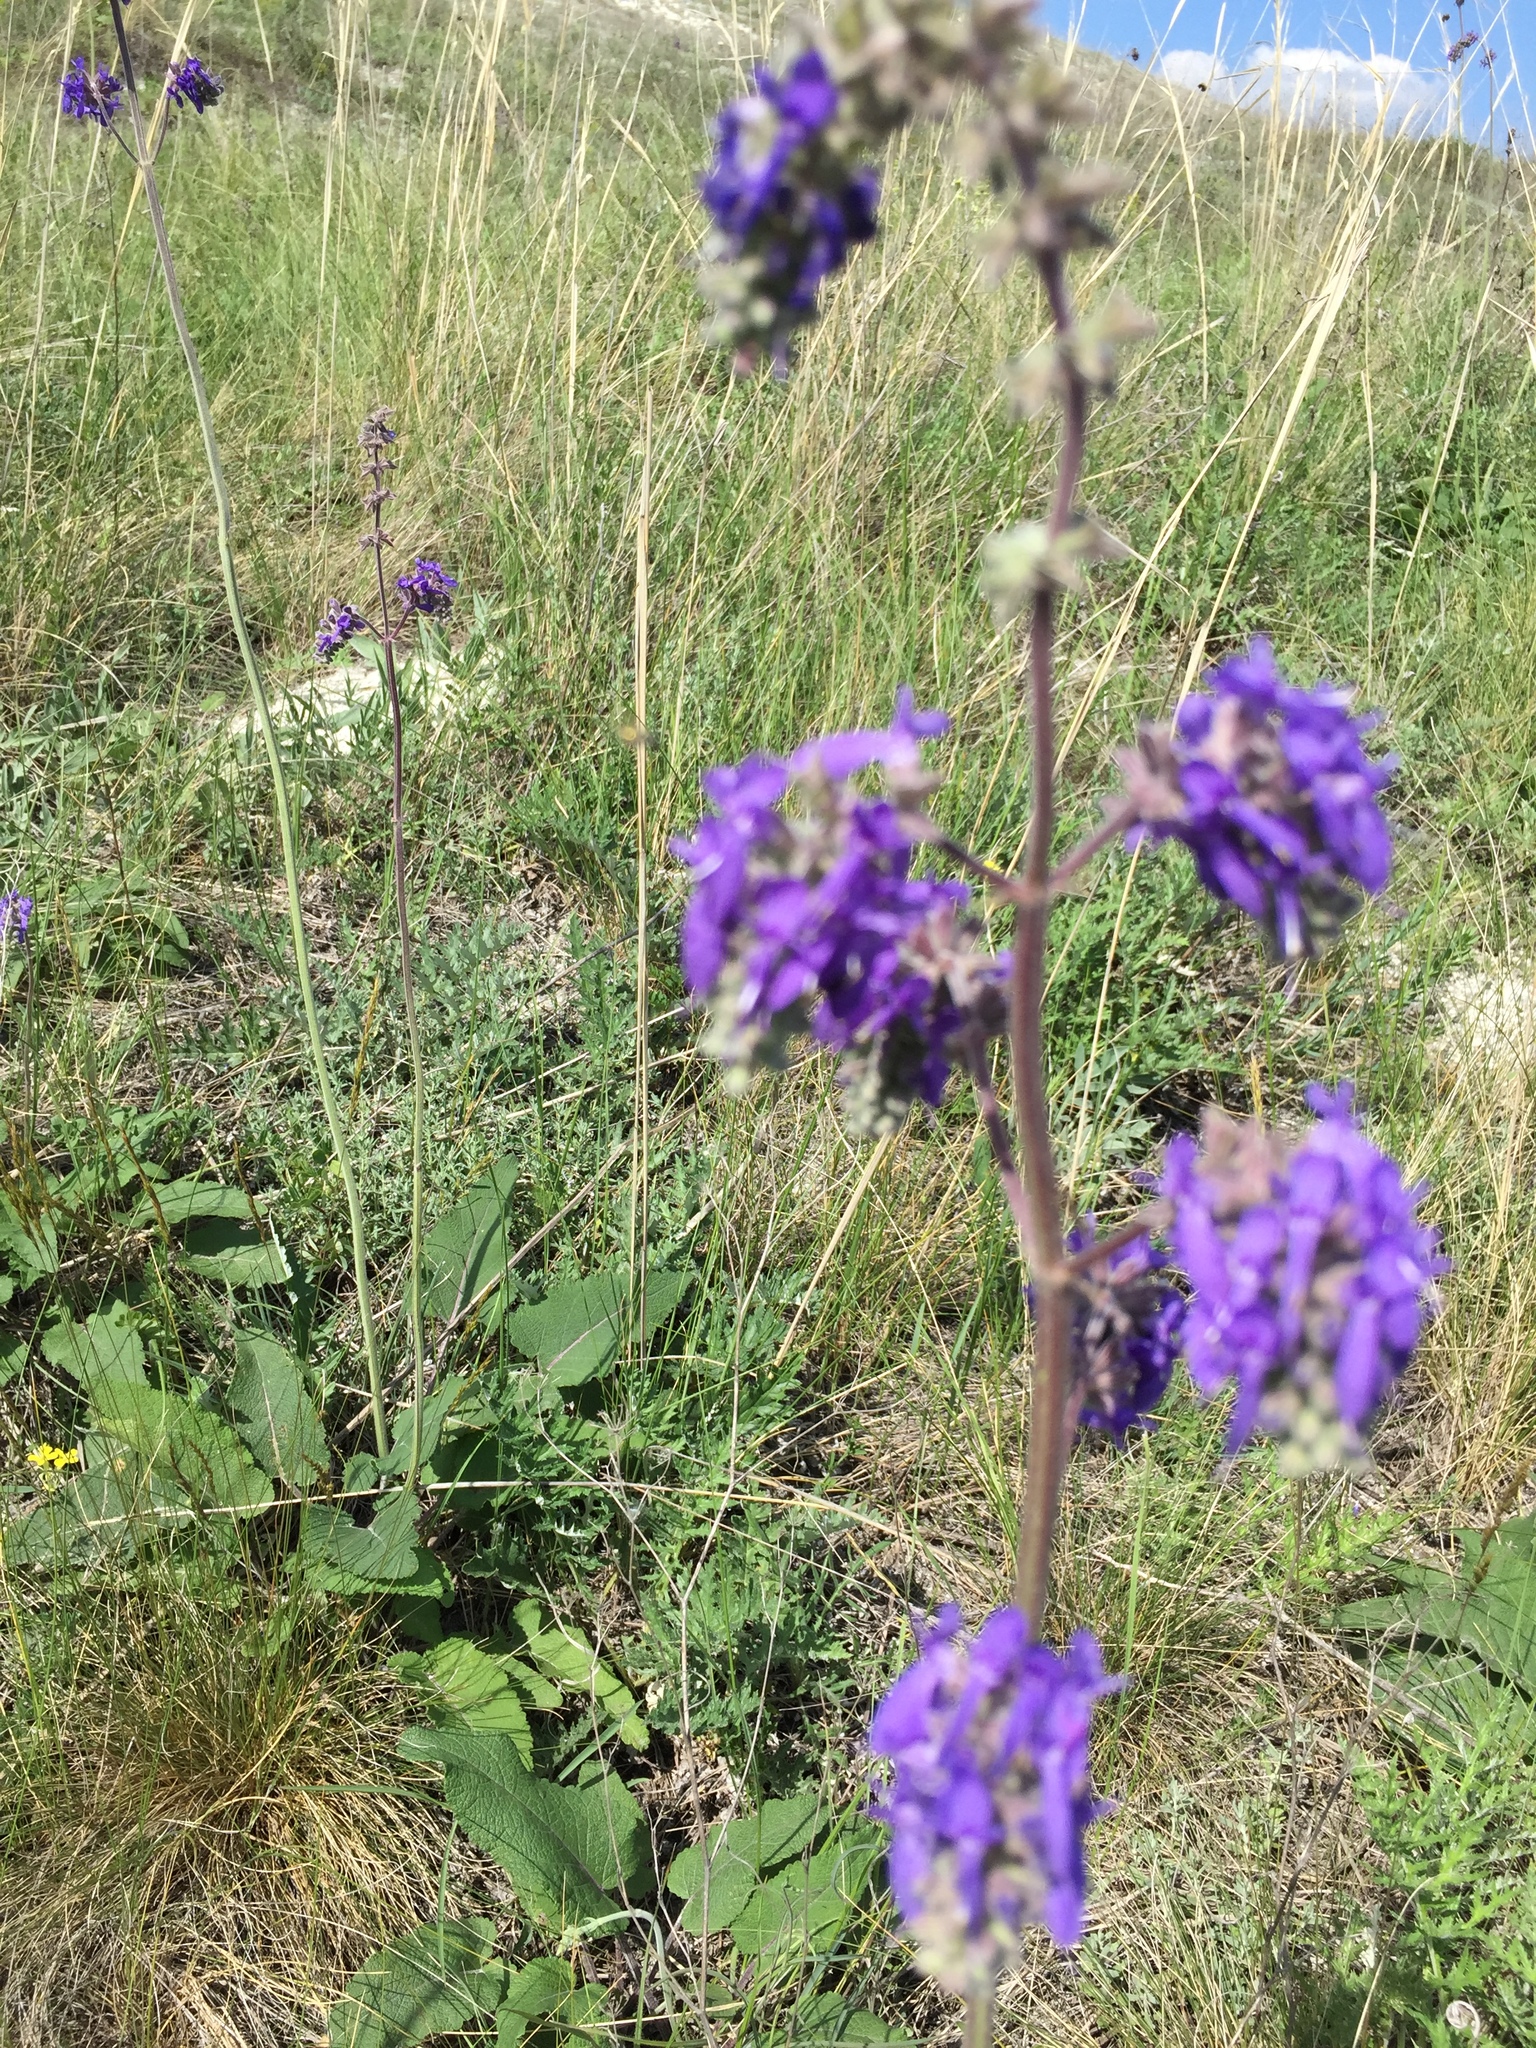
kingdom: Plantae
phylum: Tracheophyta
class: Magnoliopsida
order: Lamiales
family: Lamiaceae
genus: Salvia
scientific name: Salvia nutans
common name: Nodding sage
